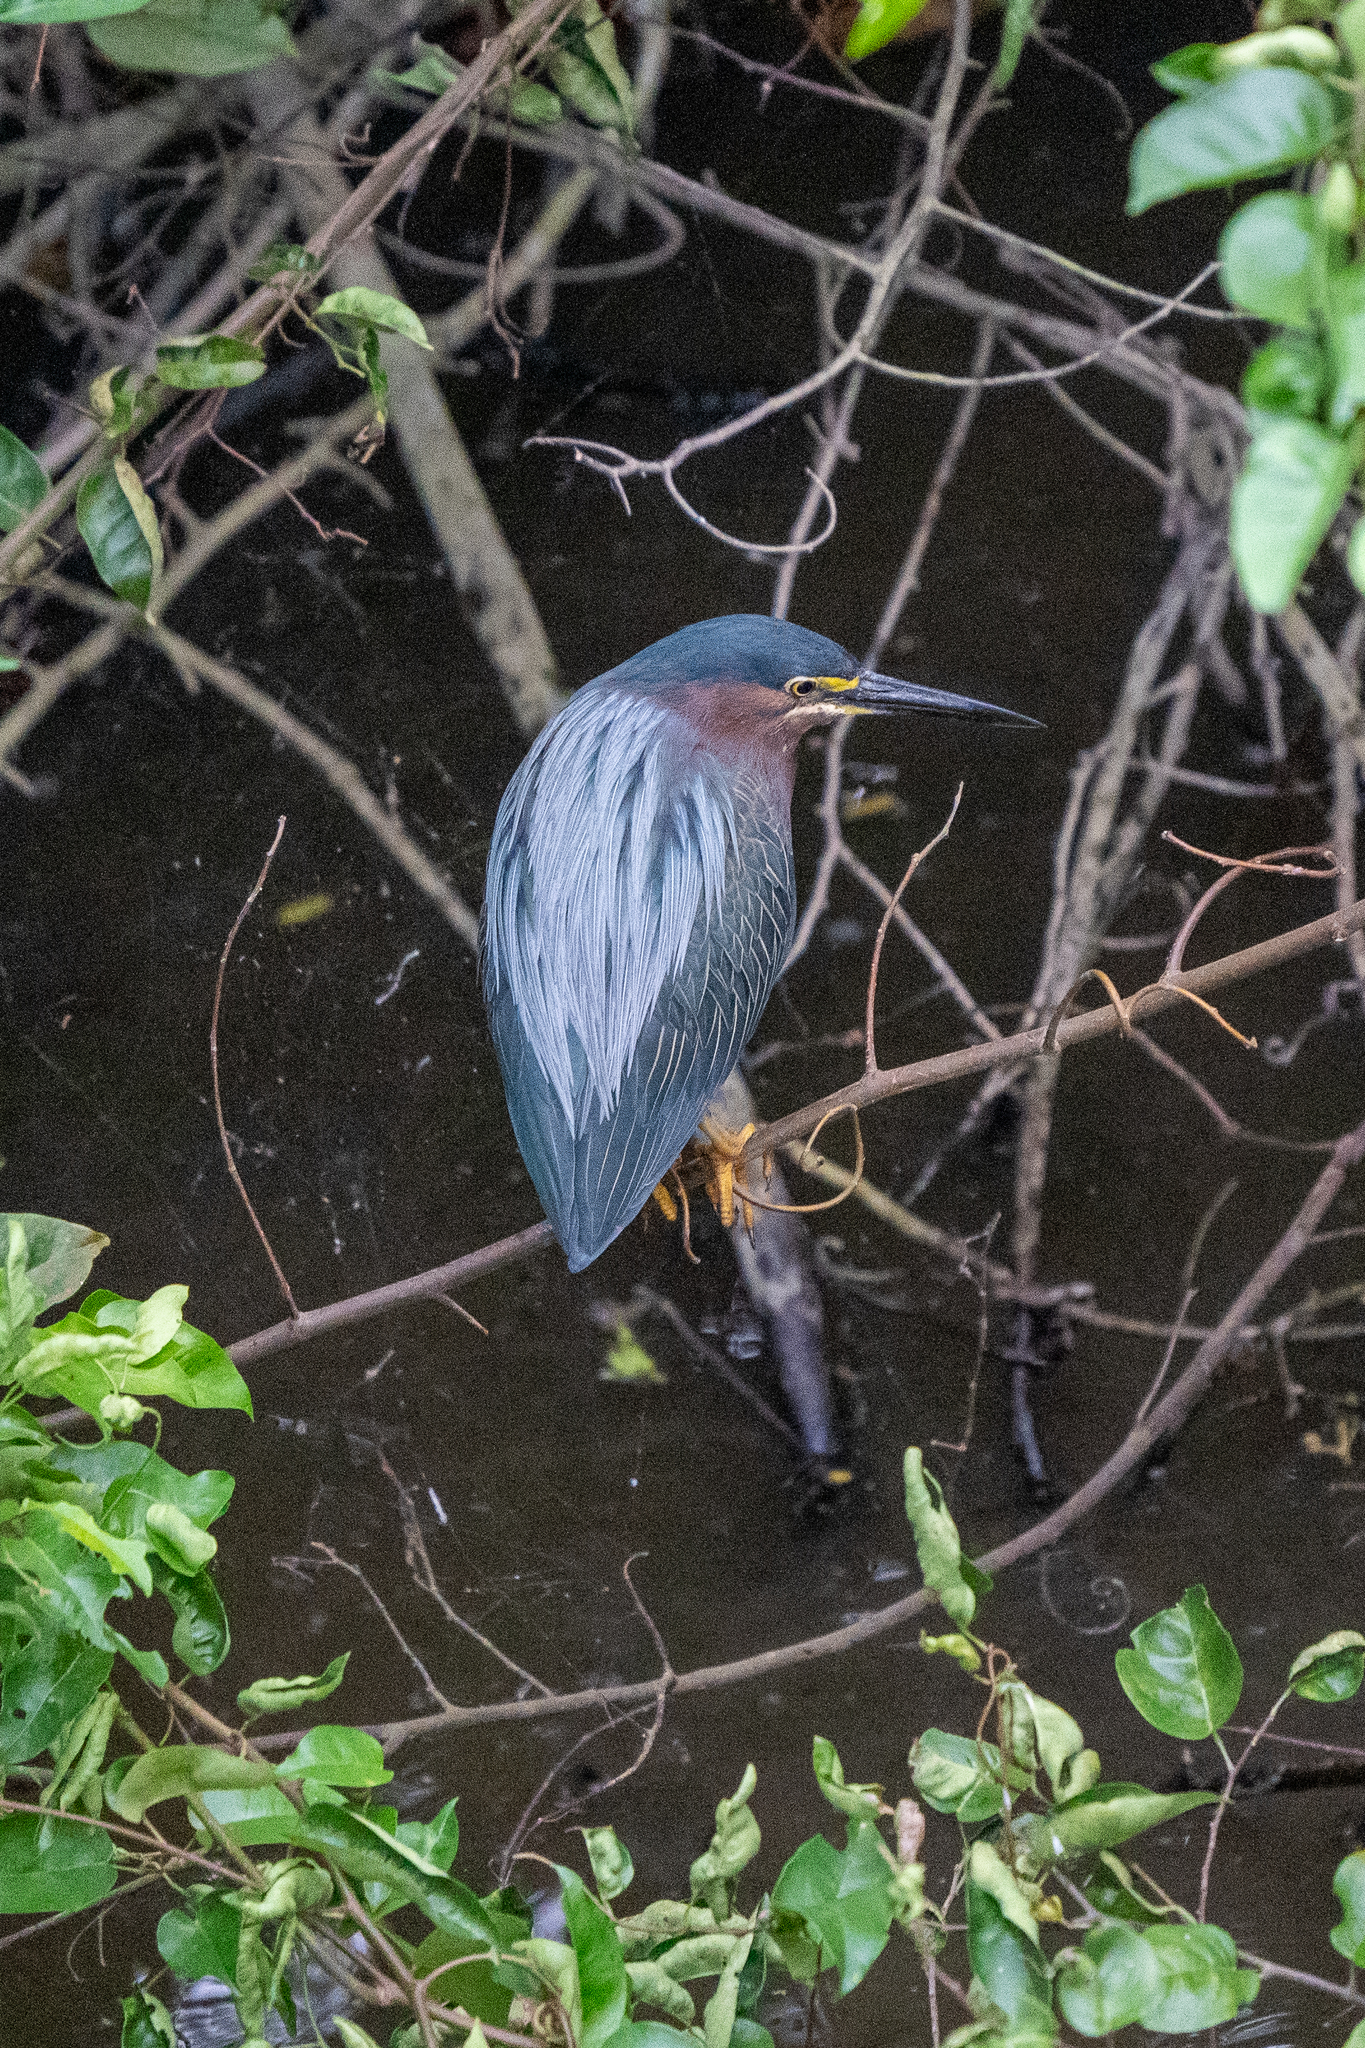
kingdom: Animalia
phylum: Chordata
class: Aves
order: Pelecaniformes
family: Ardeidae
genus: Butorides
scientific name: Butorides virescens
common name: Green heron
